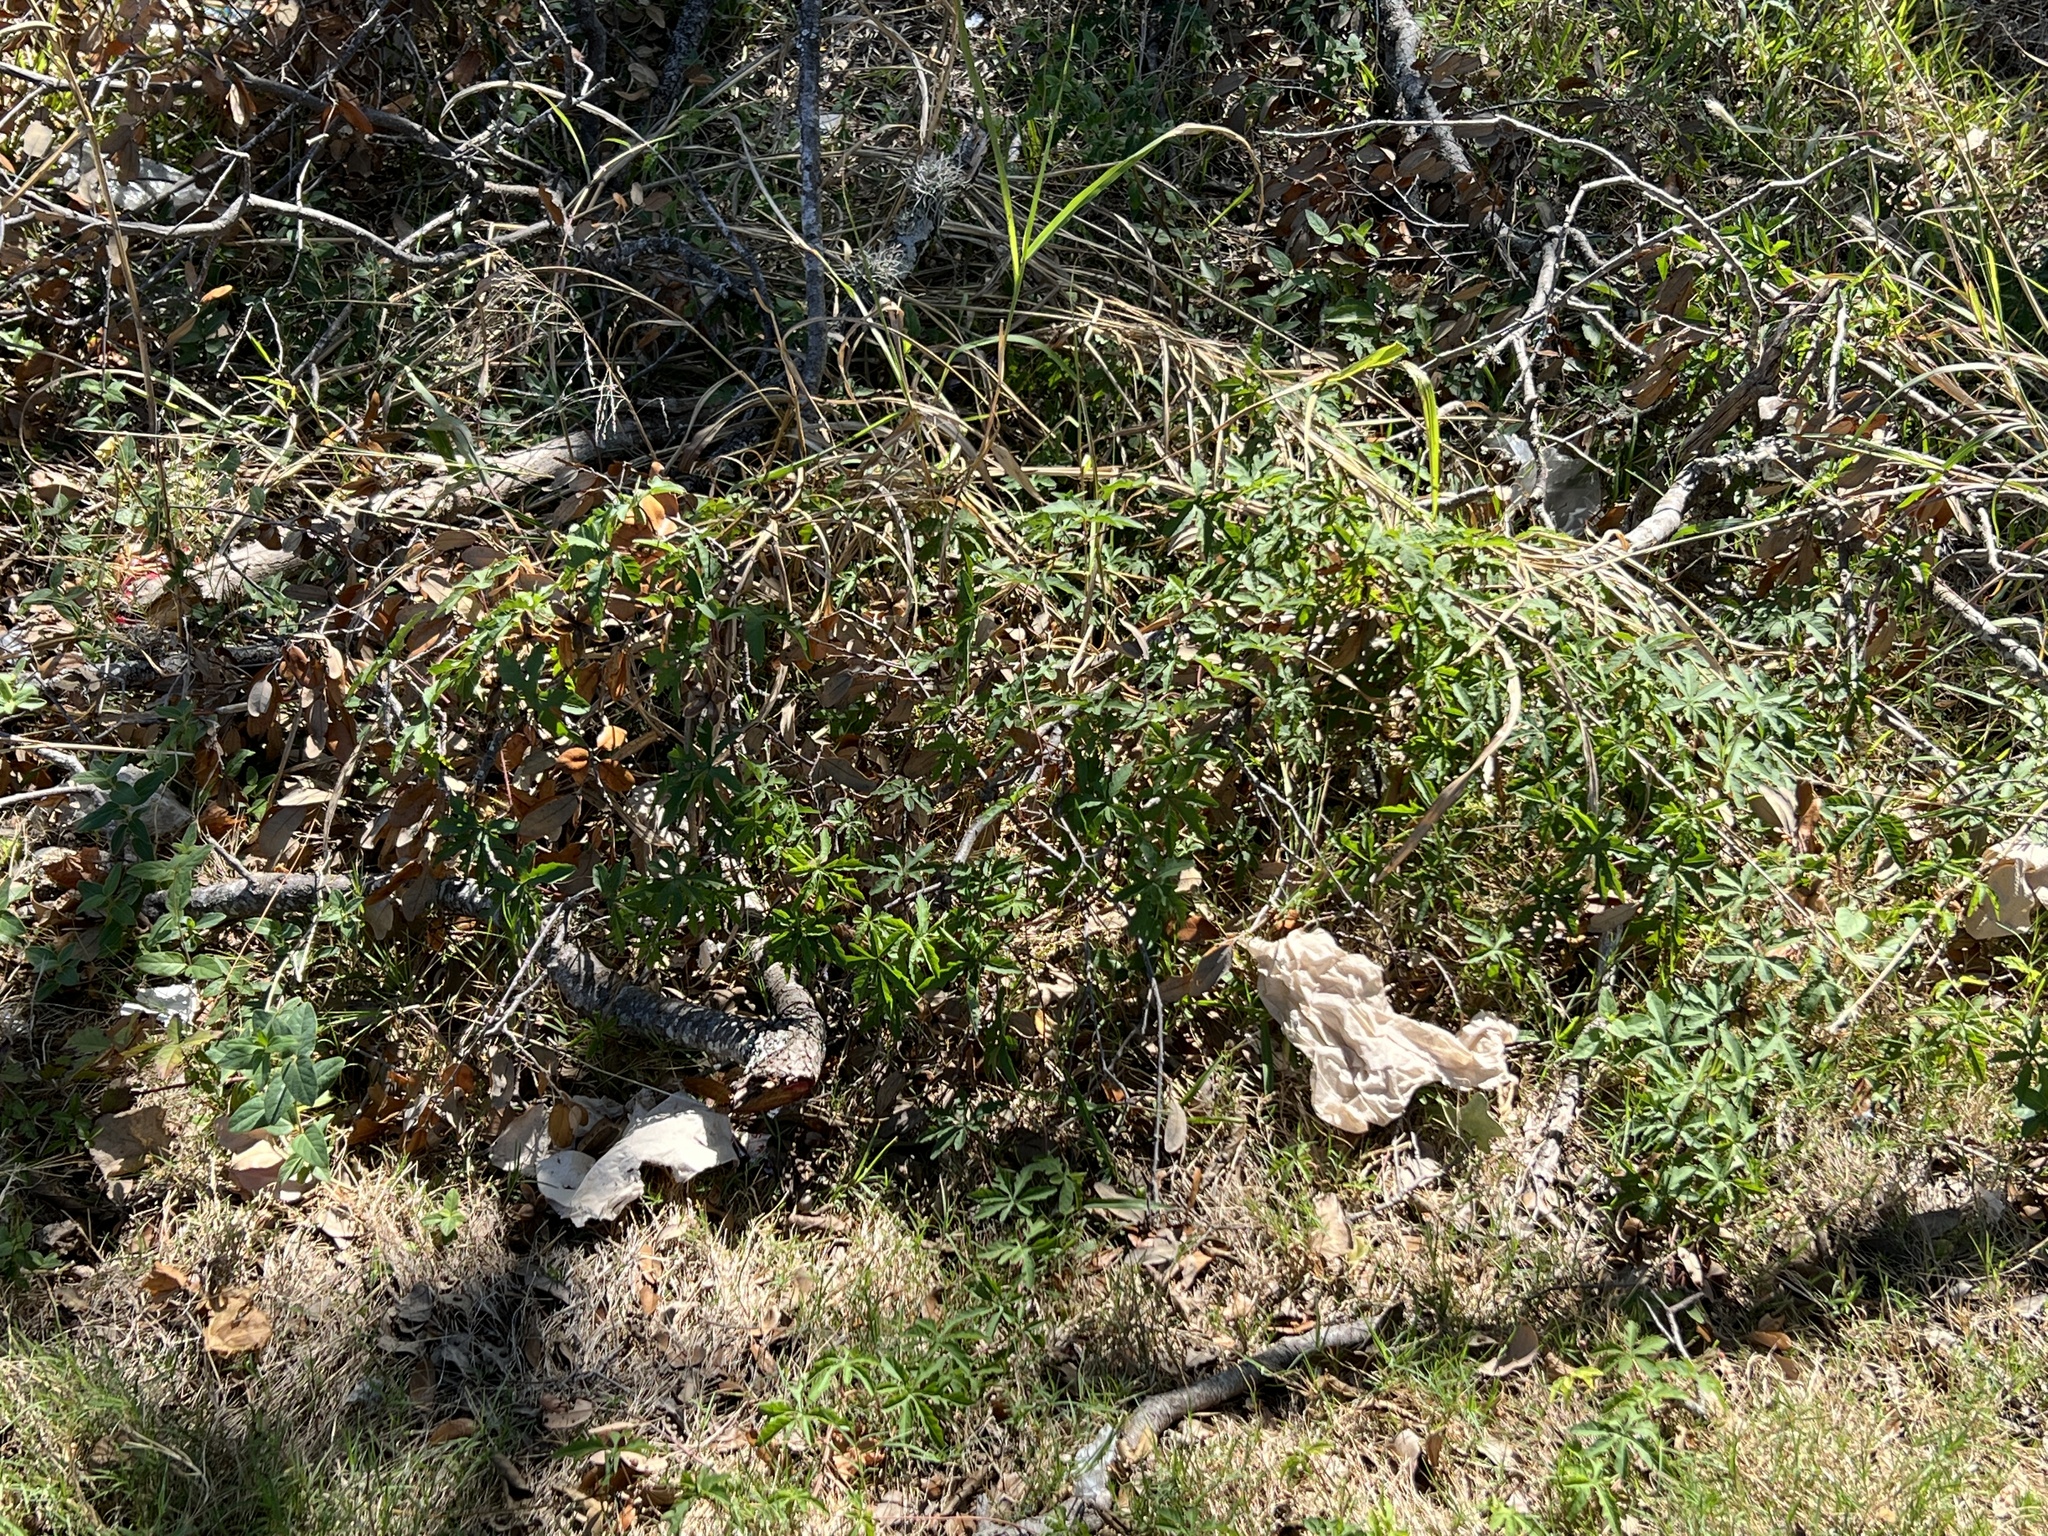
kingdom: Plantae
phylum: Tracheophyta
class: Magnoliopsida
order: Solanales
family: Convolvulaceae
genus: Distimake
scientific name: Distimake dissectus
